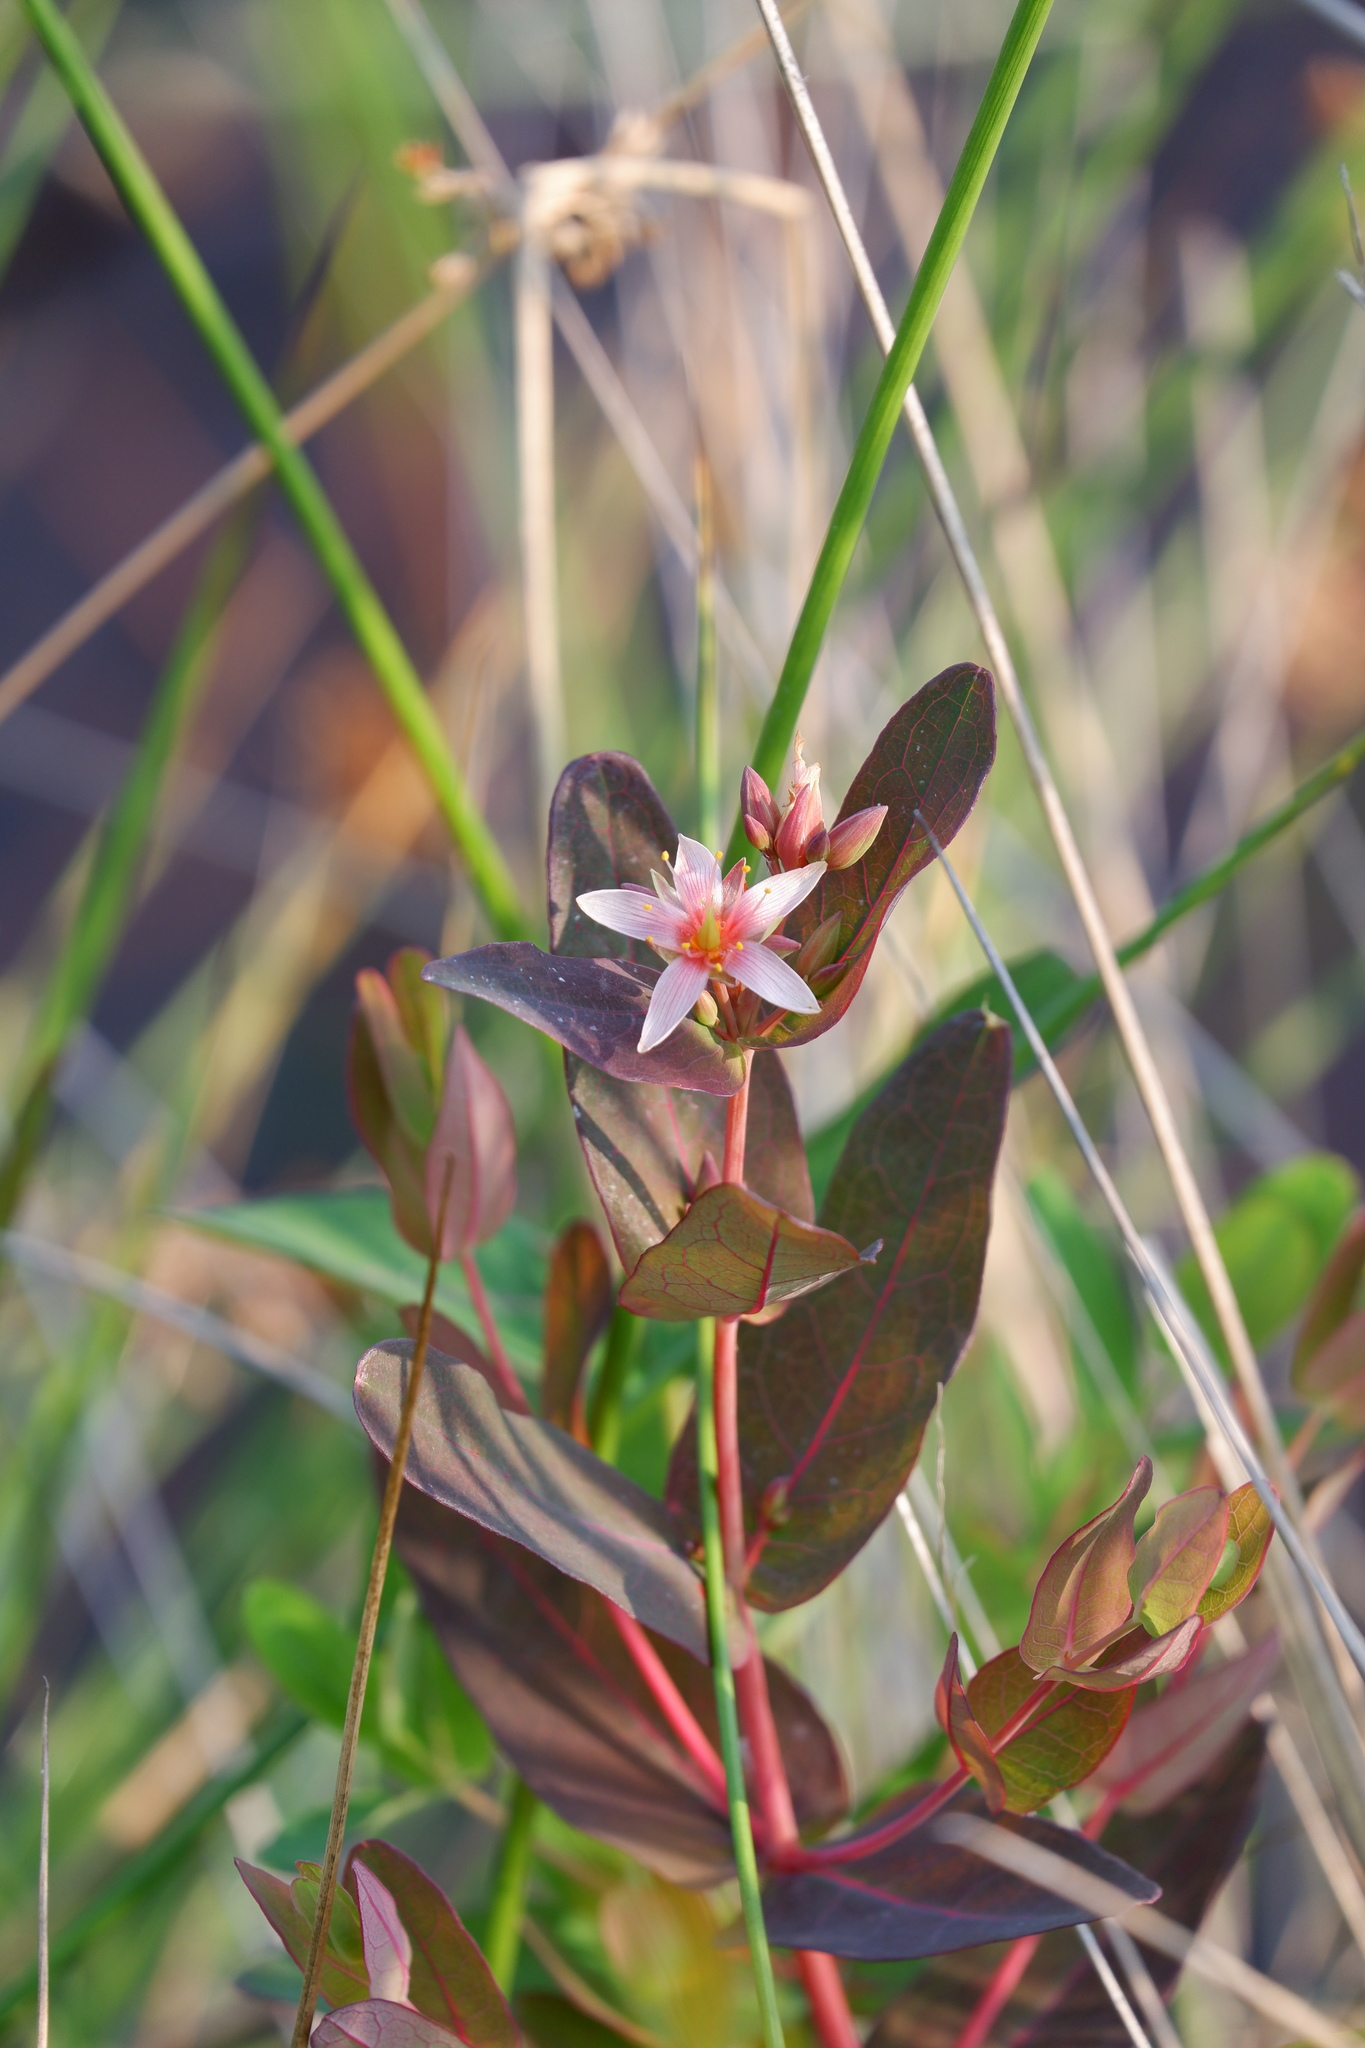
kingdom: Plantae
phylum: Tracheophyta
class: Magnoliopsida
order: Malpighiales
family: Hypericaceae
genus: Triadenum
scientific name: Triadenum virginicum
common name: Marsh st. john's-wort
